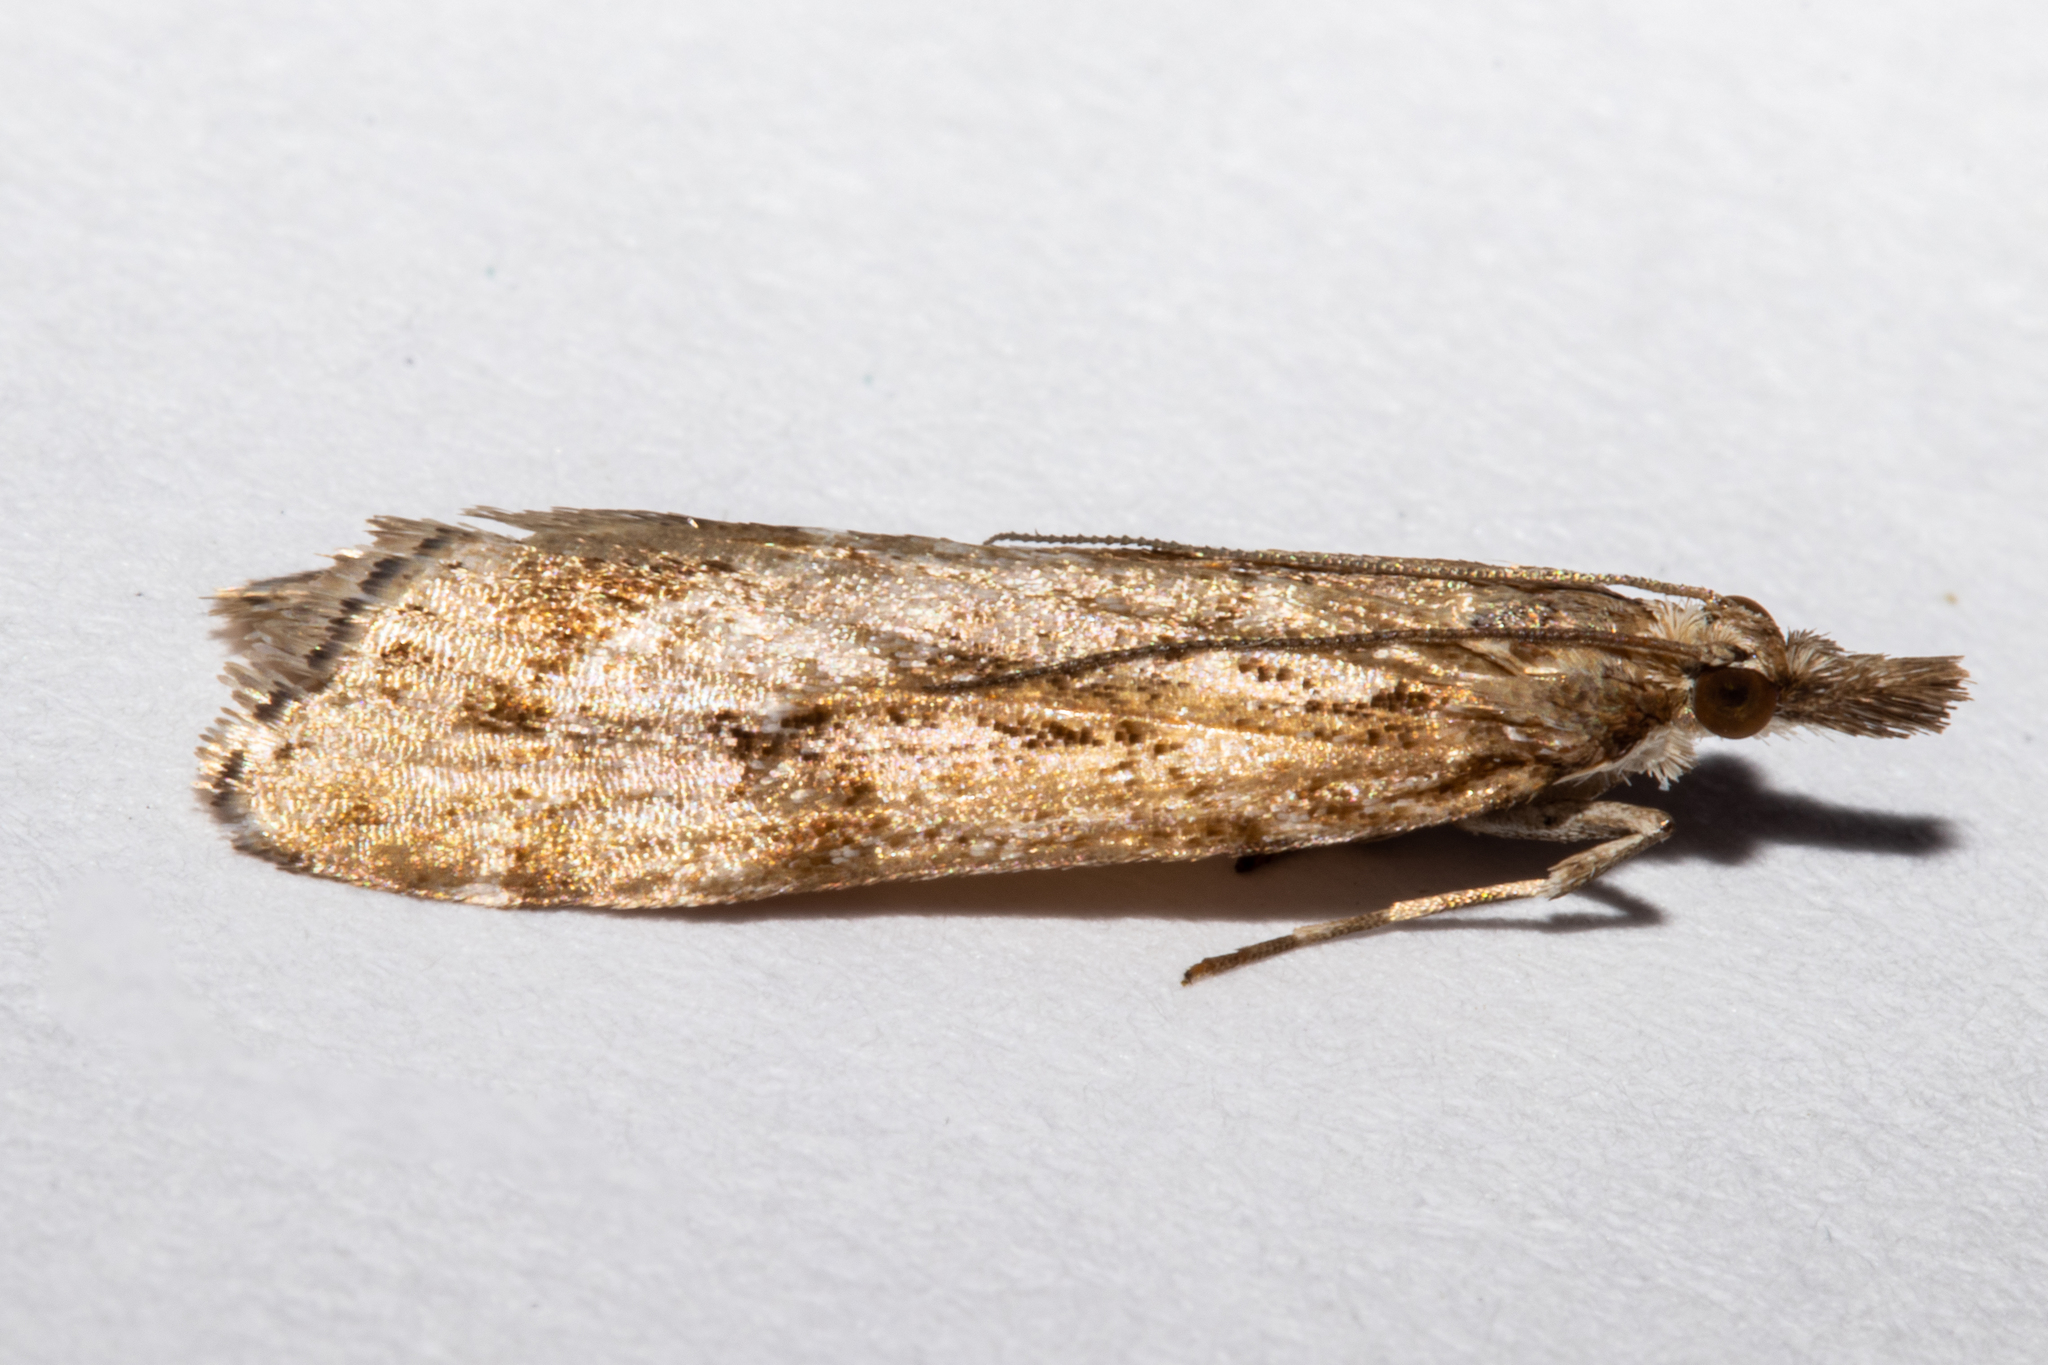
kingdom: Animalia
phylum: Arthropoda
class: Insecta
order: Lepidoptera
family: Crambidae
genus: Eudonia
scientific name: Eudonia chalara
